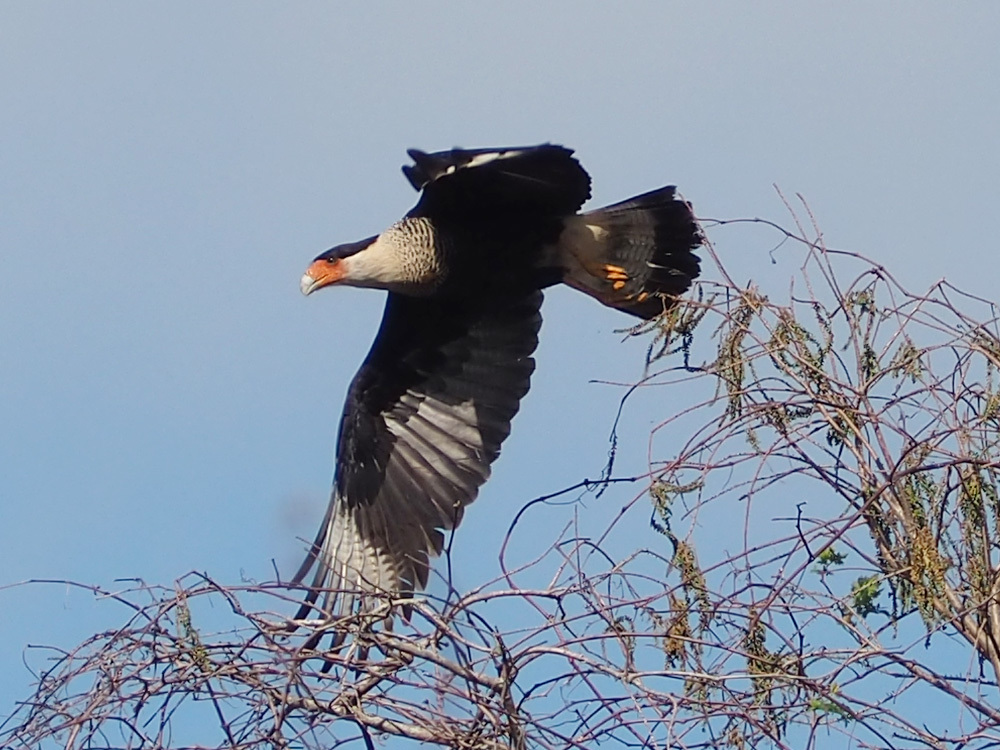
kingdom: Animalia
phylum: Chordata
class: Aves
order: Falconiformes
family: Falconidae
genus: Caracara
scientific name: Caracara plancus
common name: Southern caracara
